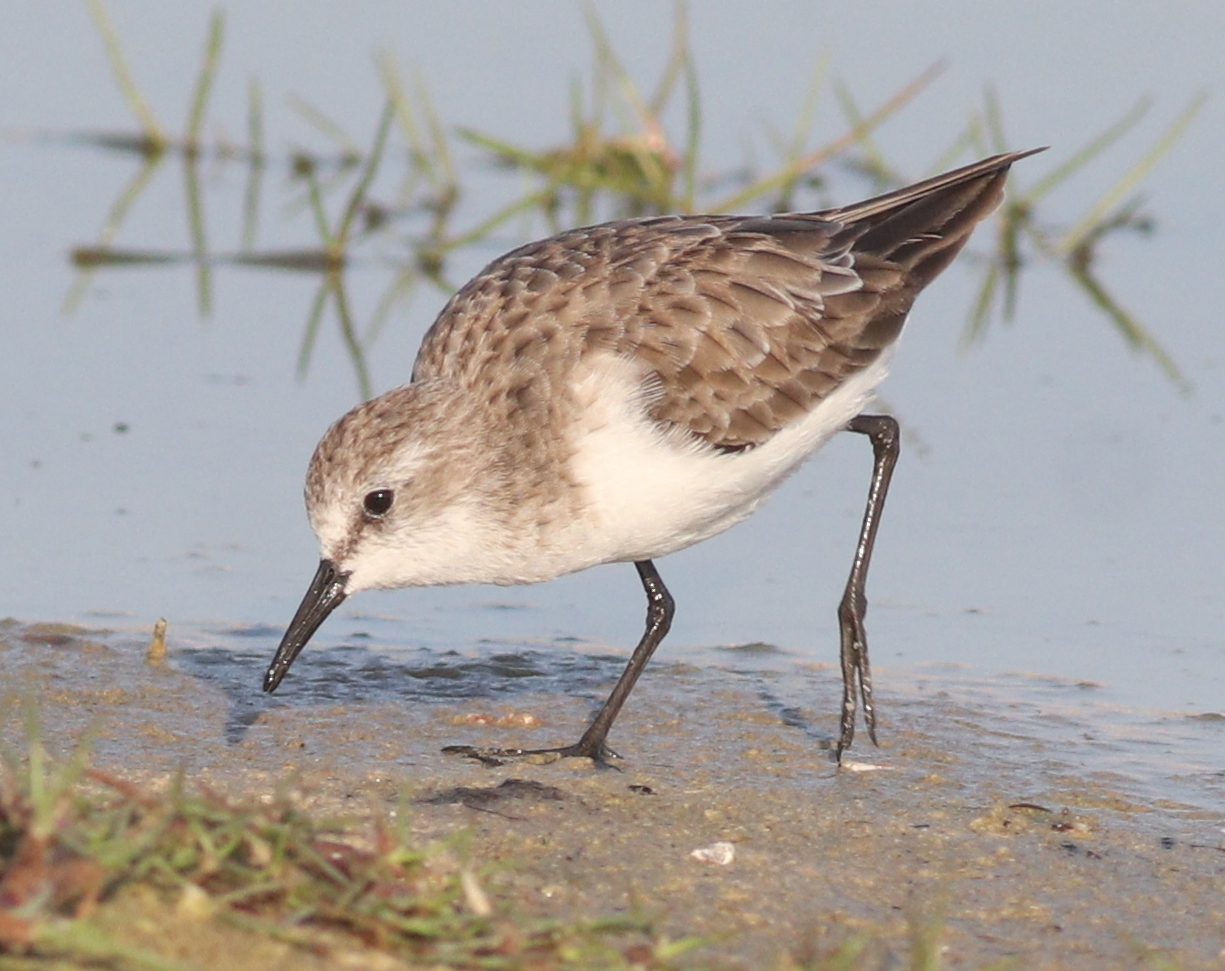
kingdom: Animalia
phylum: Chordata
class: Aves
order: Charadriiformes
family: Scolopacidae
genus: Calidris
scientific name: Calidris minuta
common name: Little stint
